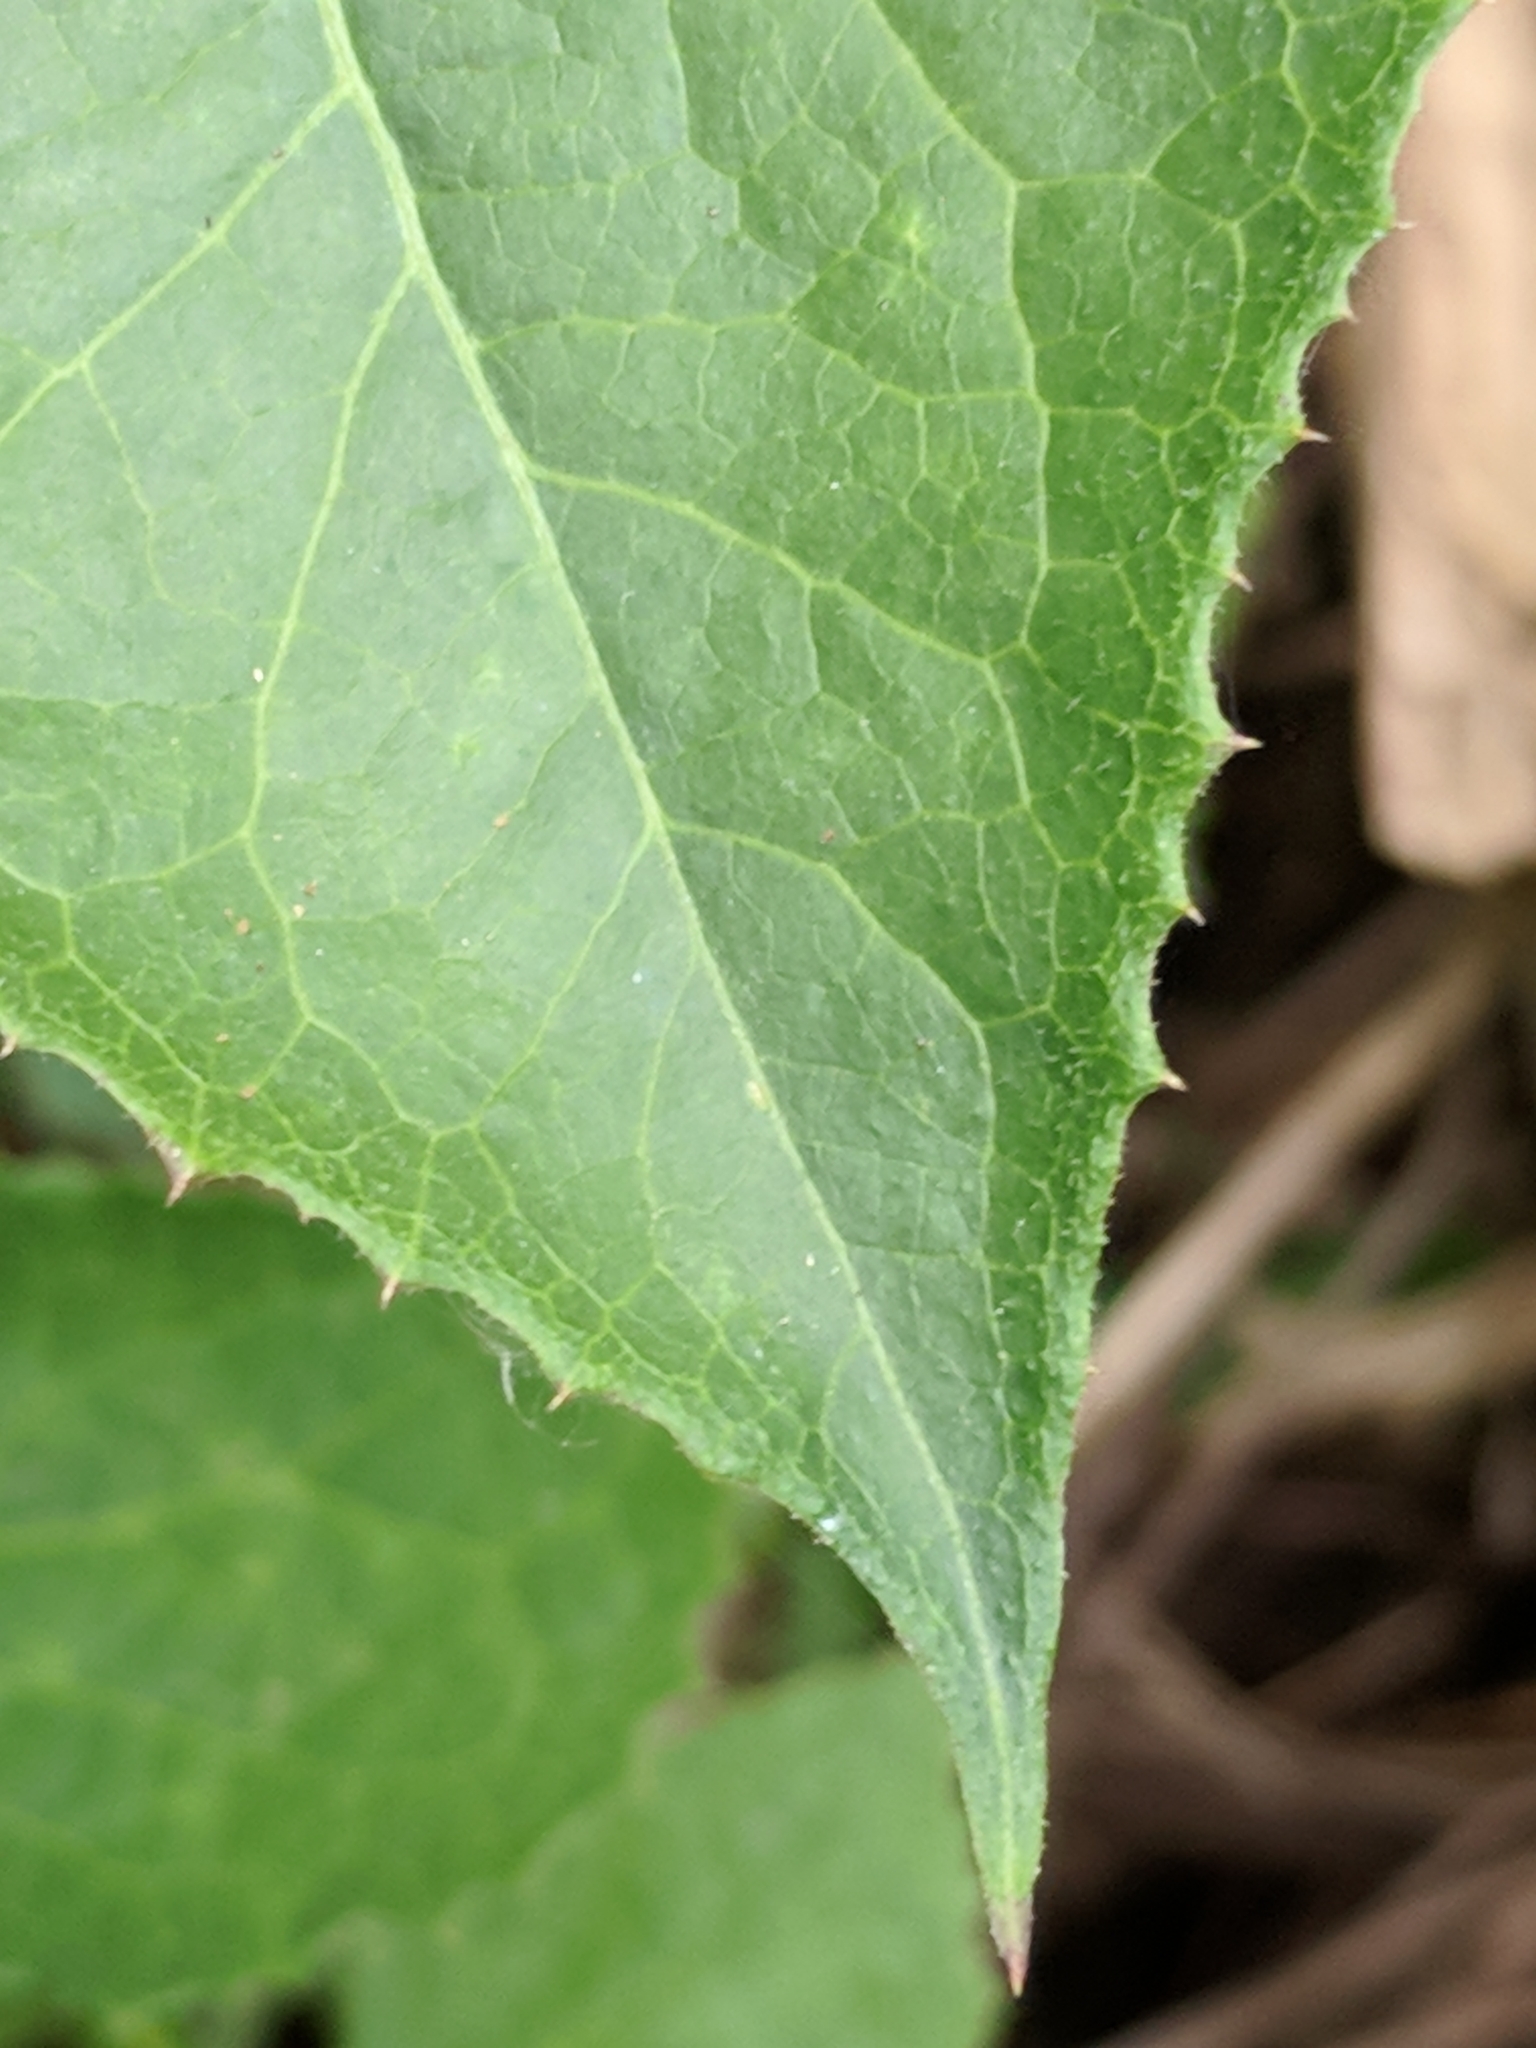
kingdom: Plantae
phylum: Tracheophyta
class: Magnoliopsida
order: Asterales
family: Asteraceae
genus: Lactuca
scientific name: Lactuca floridana
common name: Woodland lettuce
